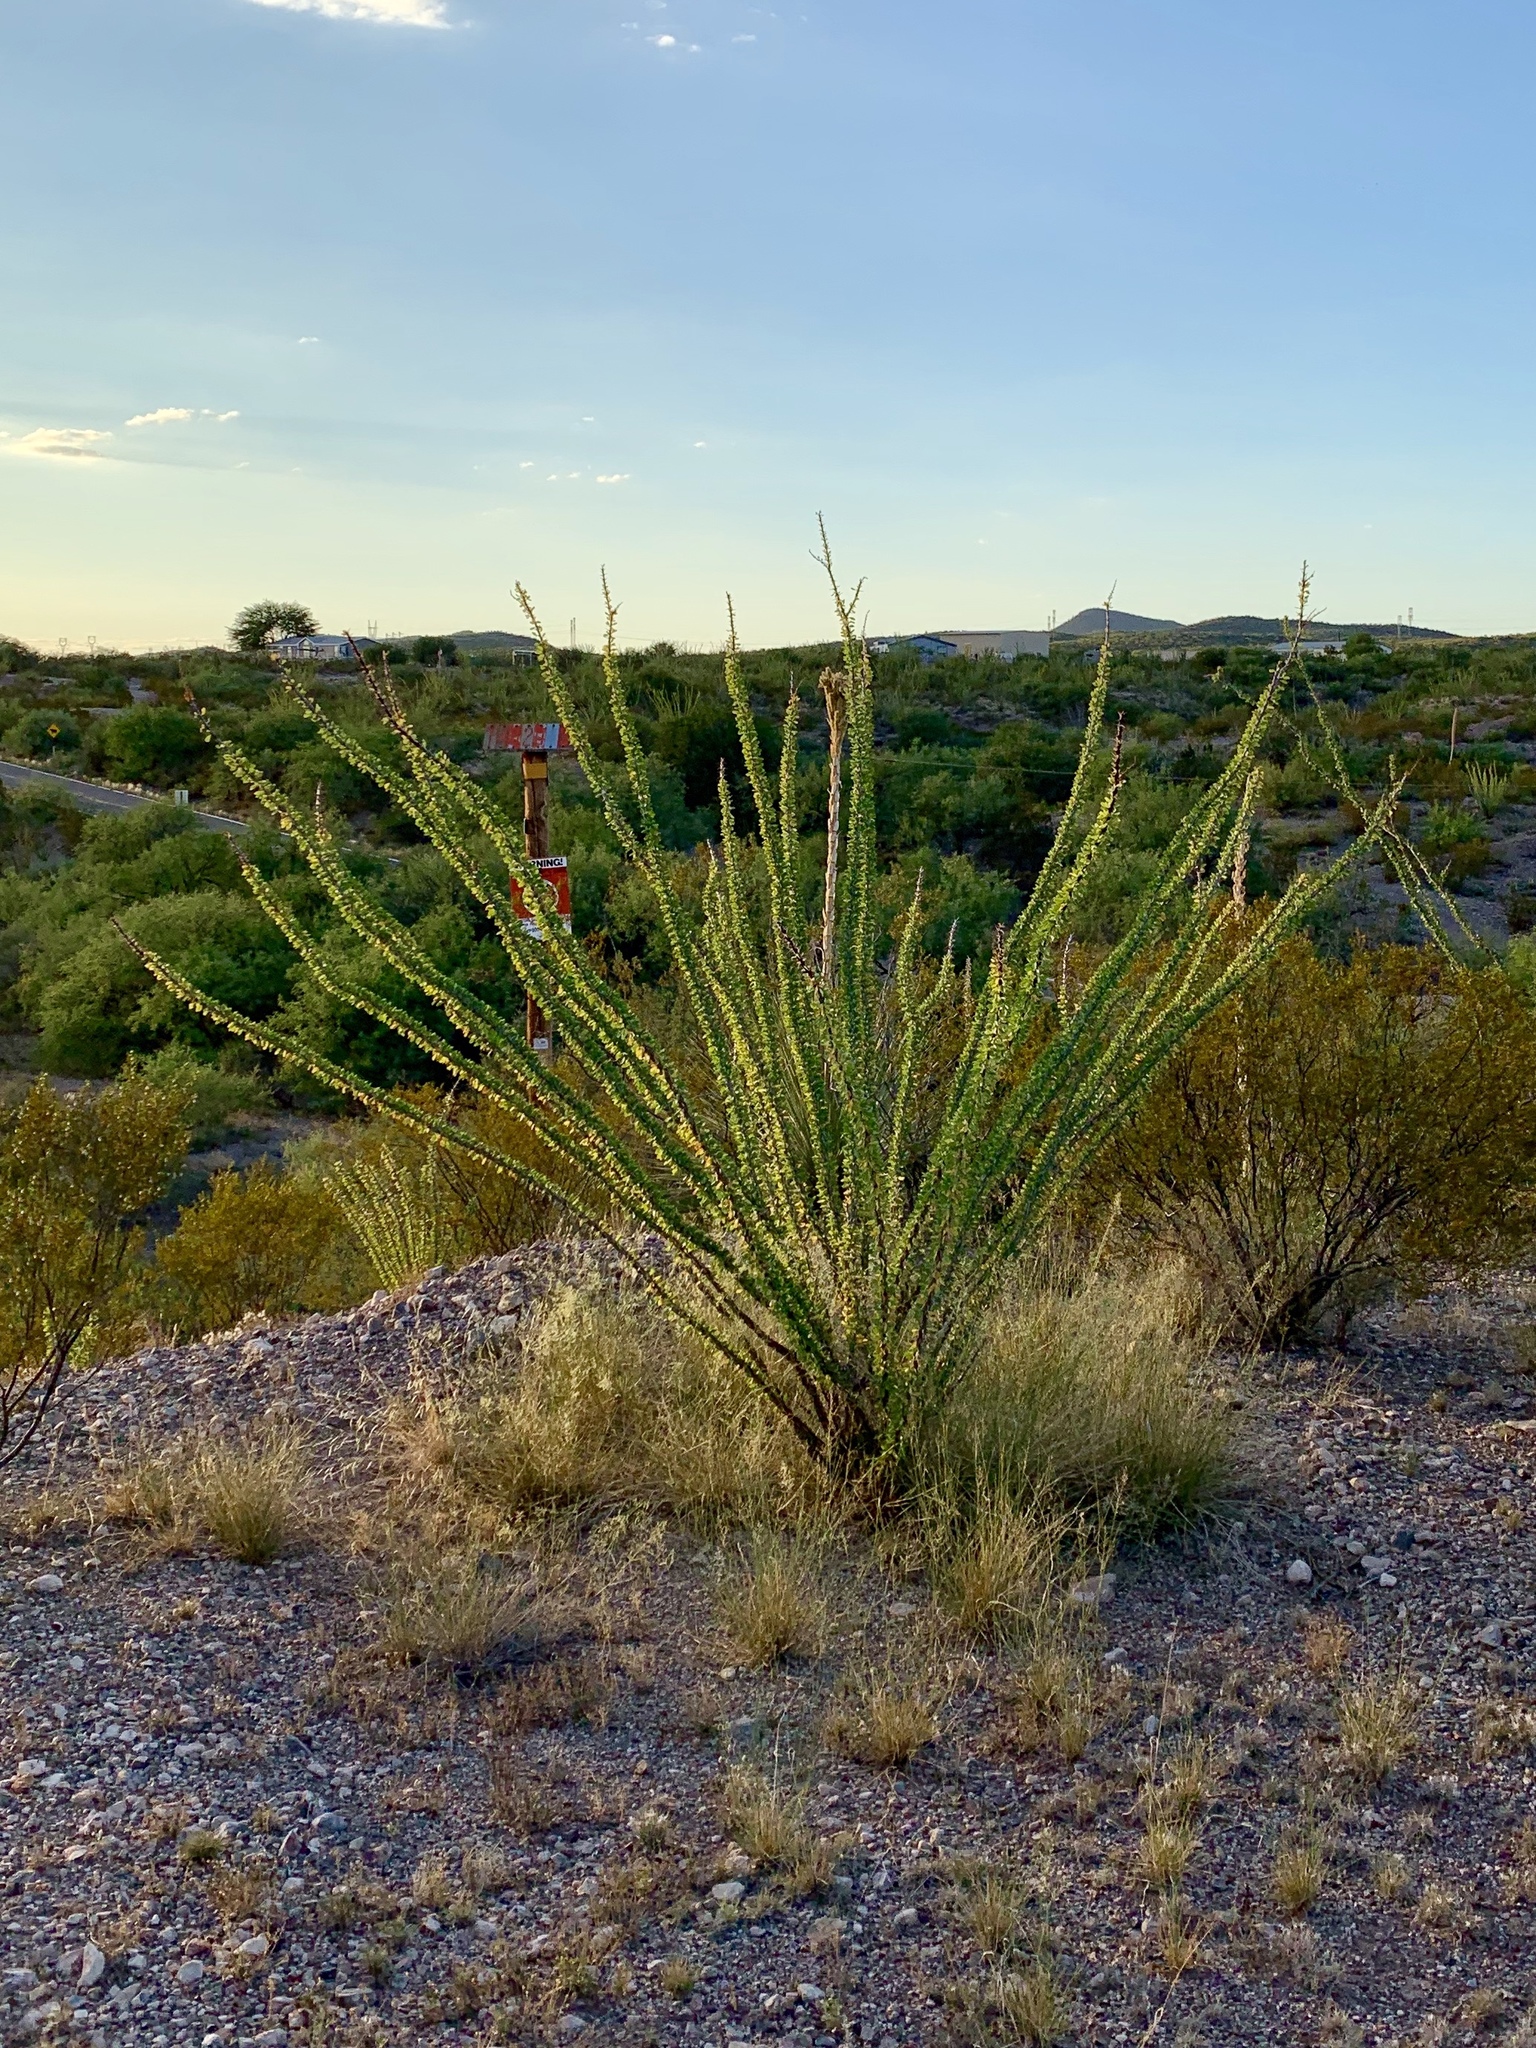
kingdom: Plantae
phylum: Tracheophyta
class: Magnoliopsida
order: Ericales
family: Fouquieriaceae
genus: Fouquieria
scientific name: Fouquieria splendens
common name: Vine-cactus
